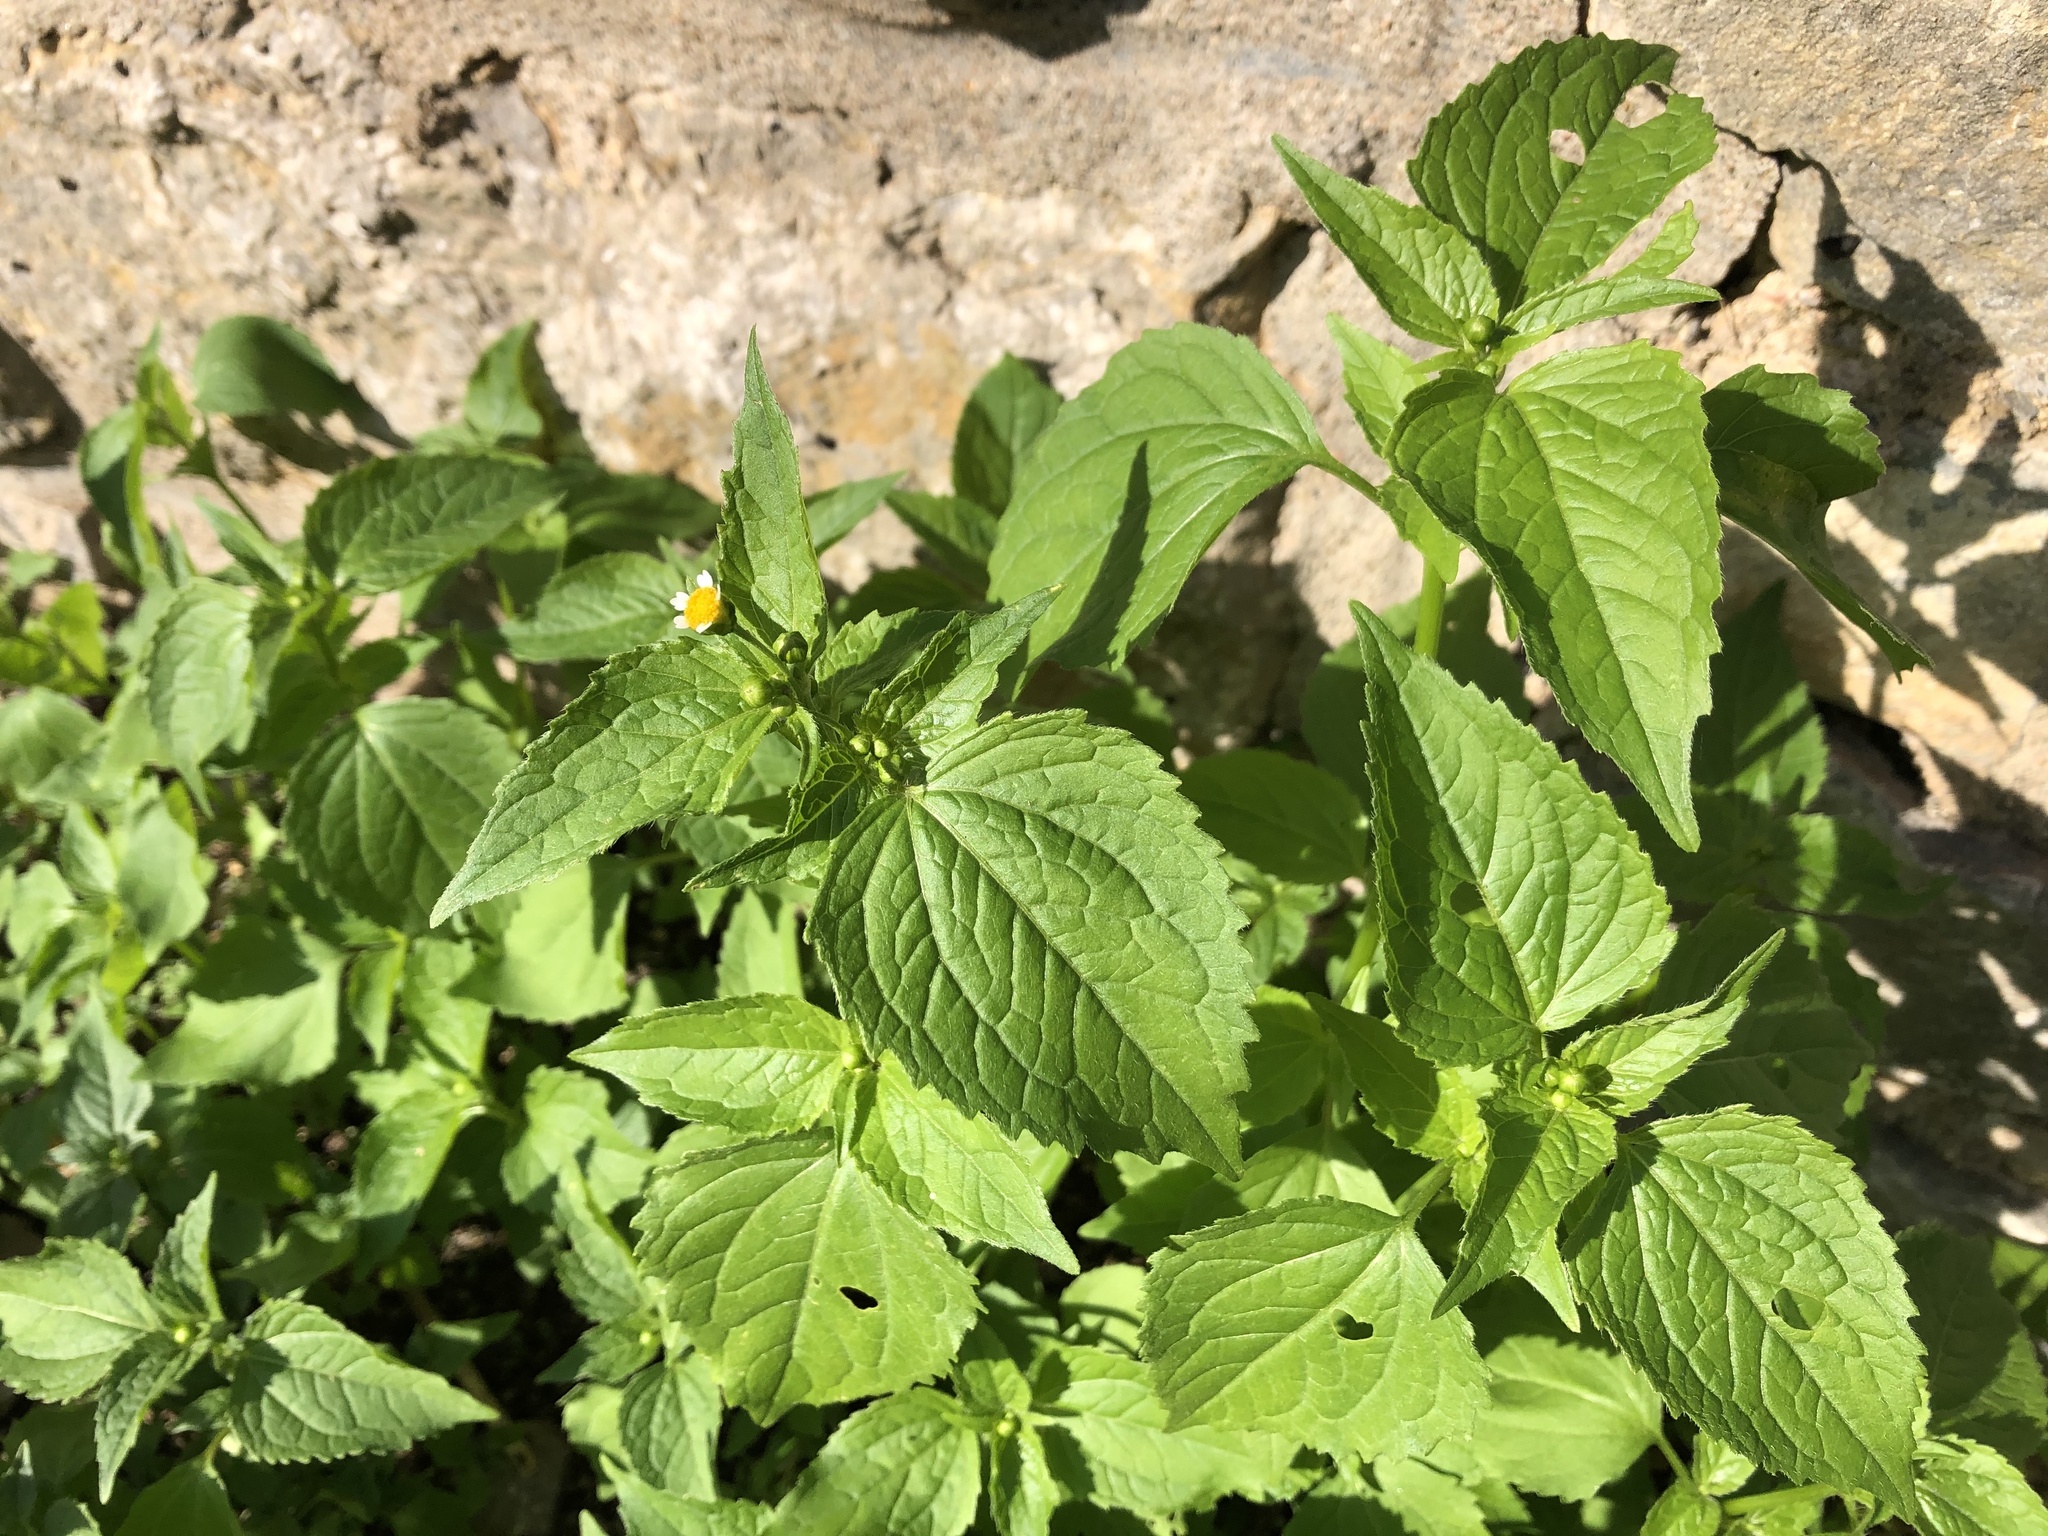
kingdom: Plantae
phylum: Tracheophyta
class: Magnoliopsida
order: Asterales
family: Asteraceae
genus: Galinsoga
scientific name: Galinsoga parviflora
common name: Gallant soldier
